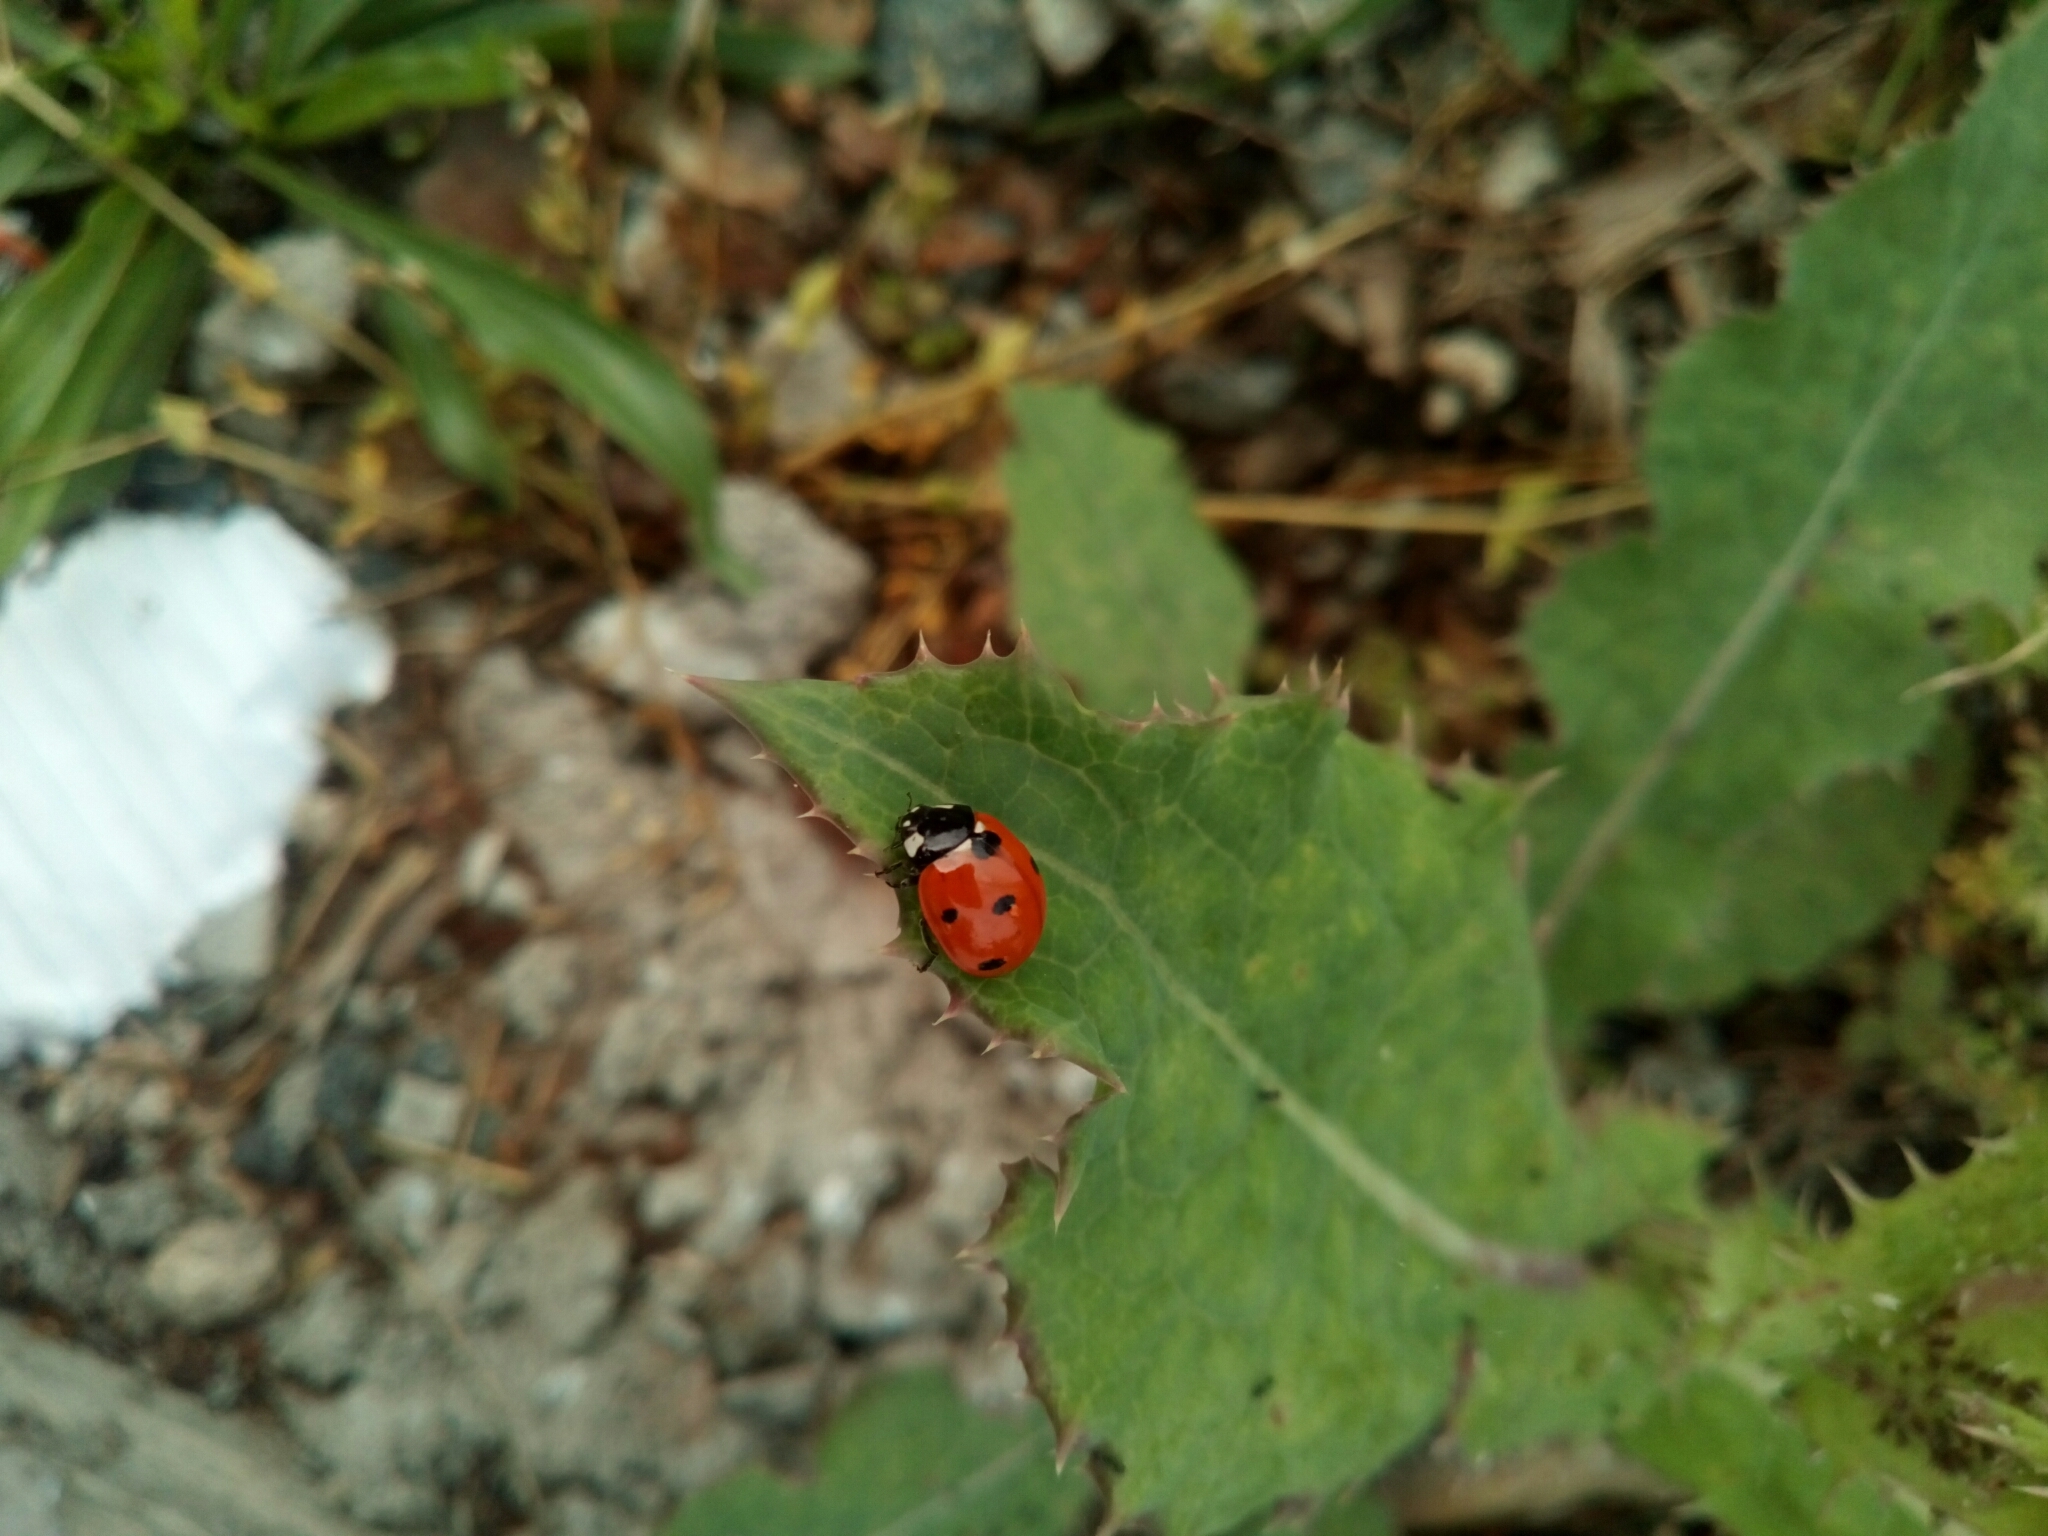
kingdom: Animalia
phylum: Arthropoda
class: Insecta
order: Coleoptera
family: Coccinellidae
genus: Coccinella
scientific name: Coccinella septempunctata
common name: Sevenspotted lady beetle
